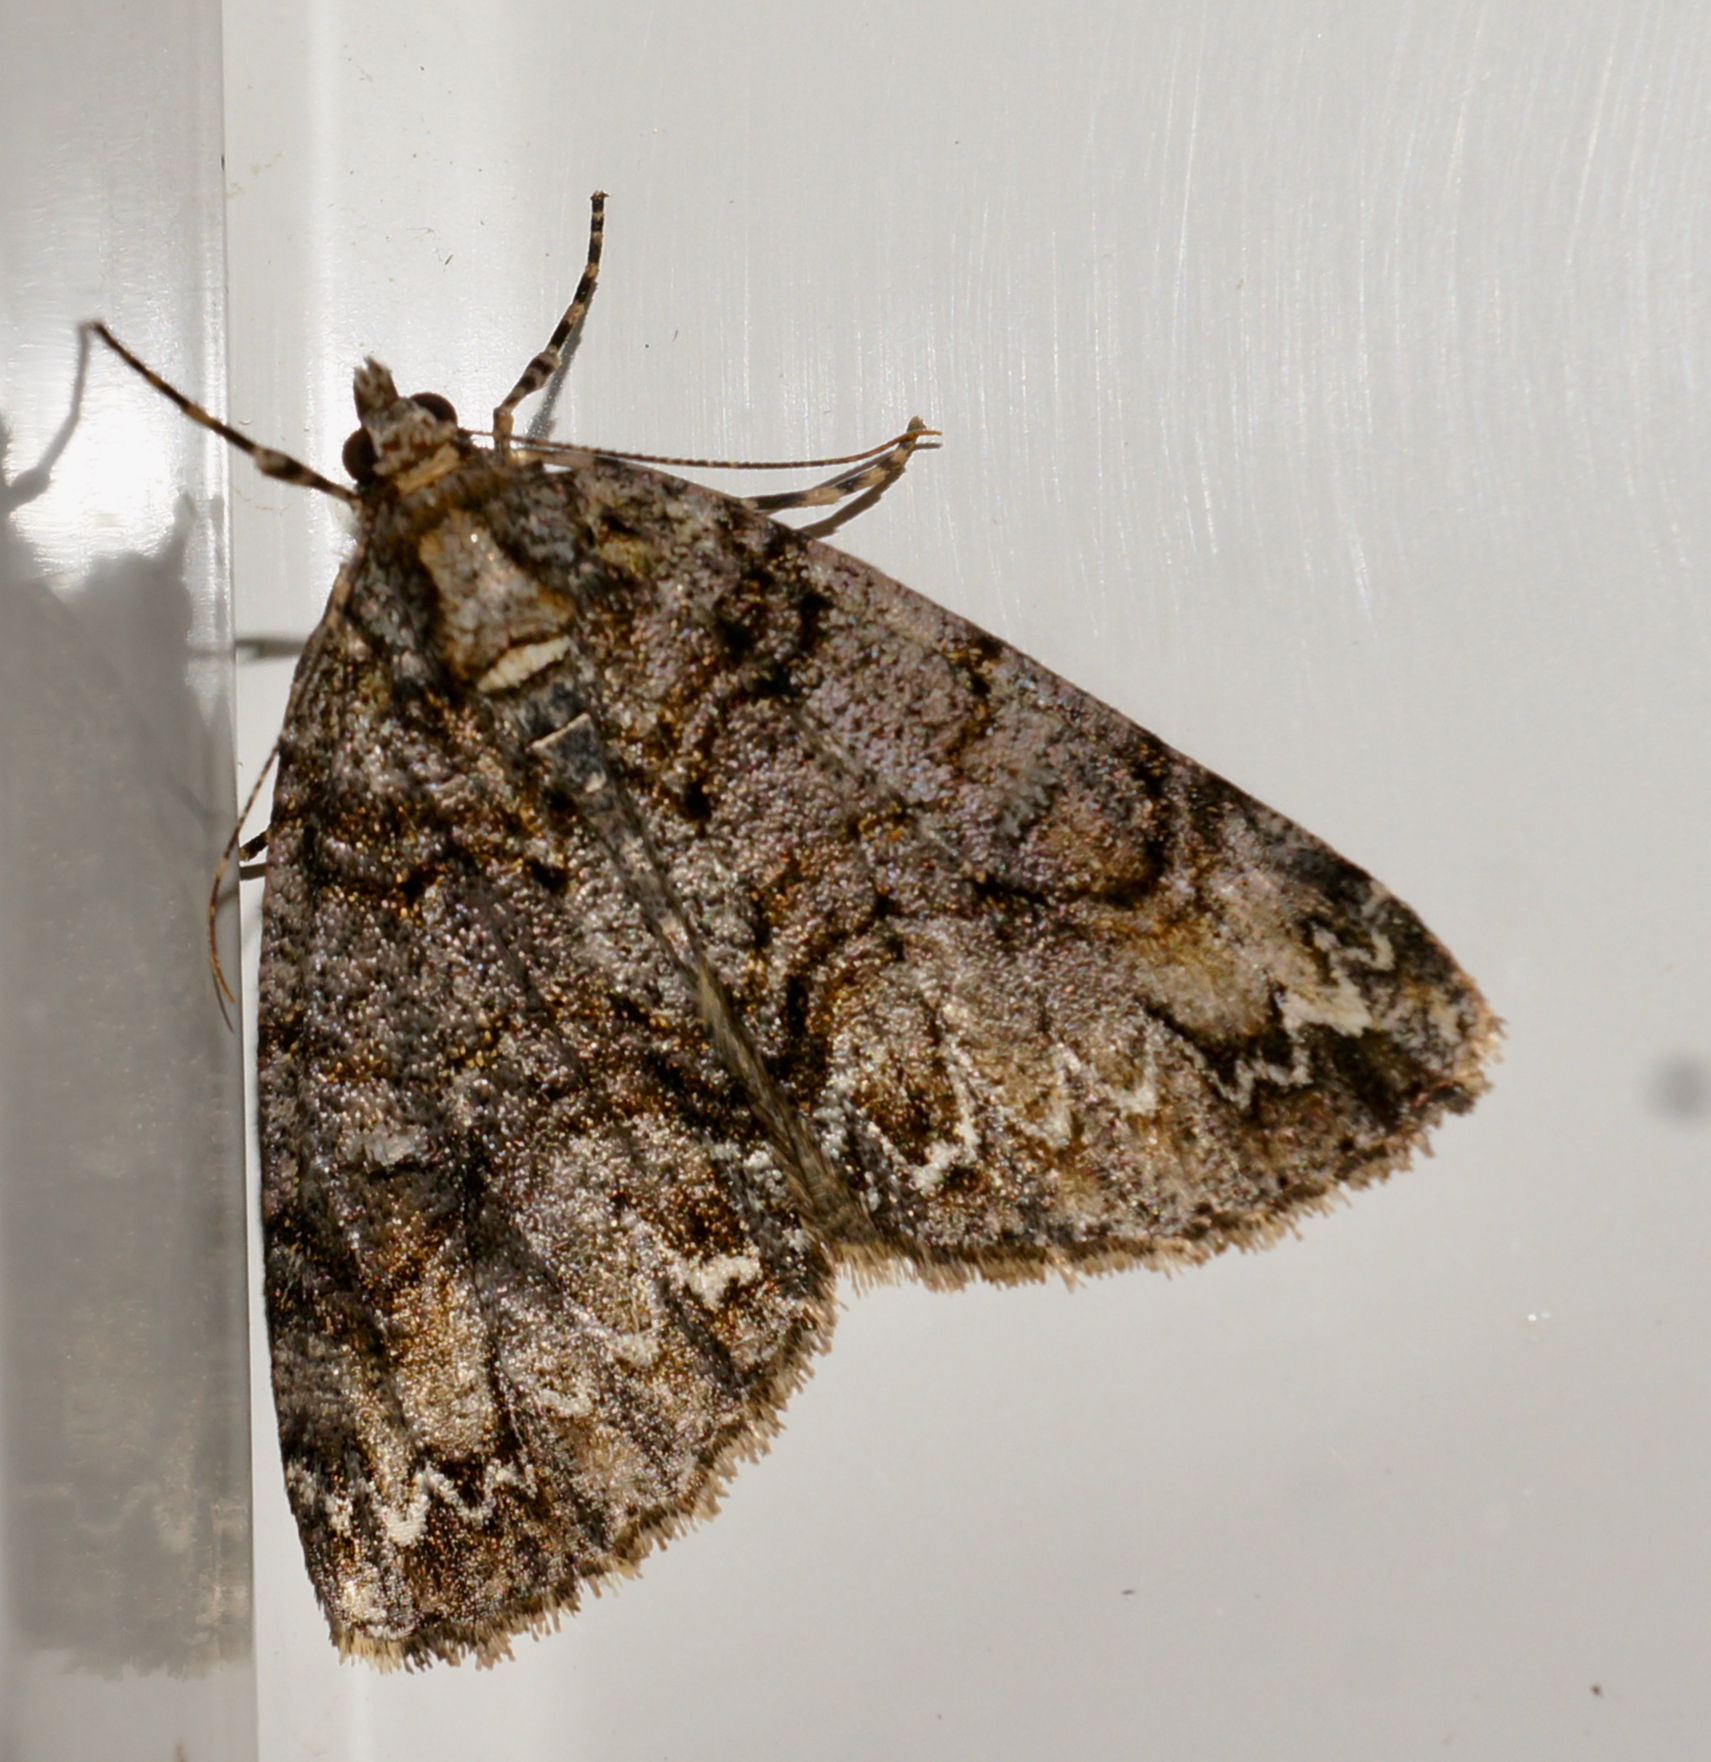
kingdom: Animalia
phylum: Arthropoda
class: Insecta
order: Lepidoptera
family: Geometridae
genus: Pseudocoremia
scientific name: Pseudocoremia suavis
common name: Common forest looper
